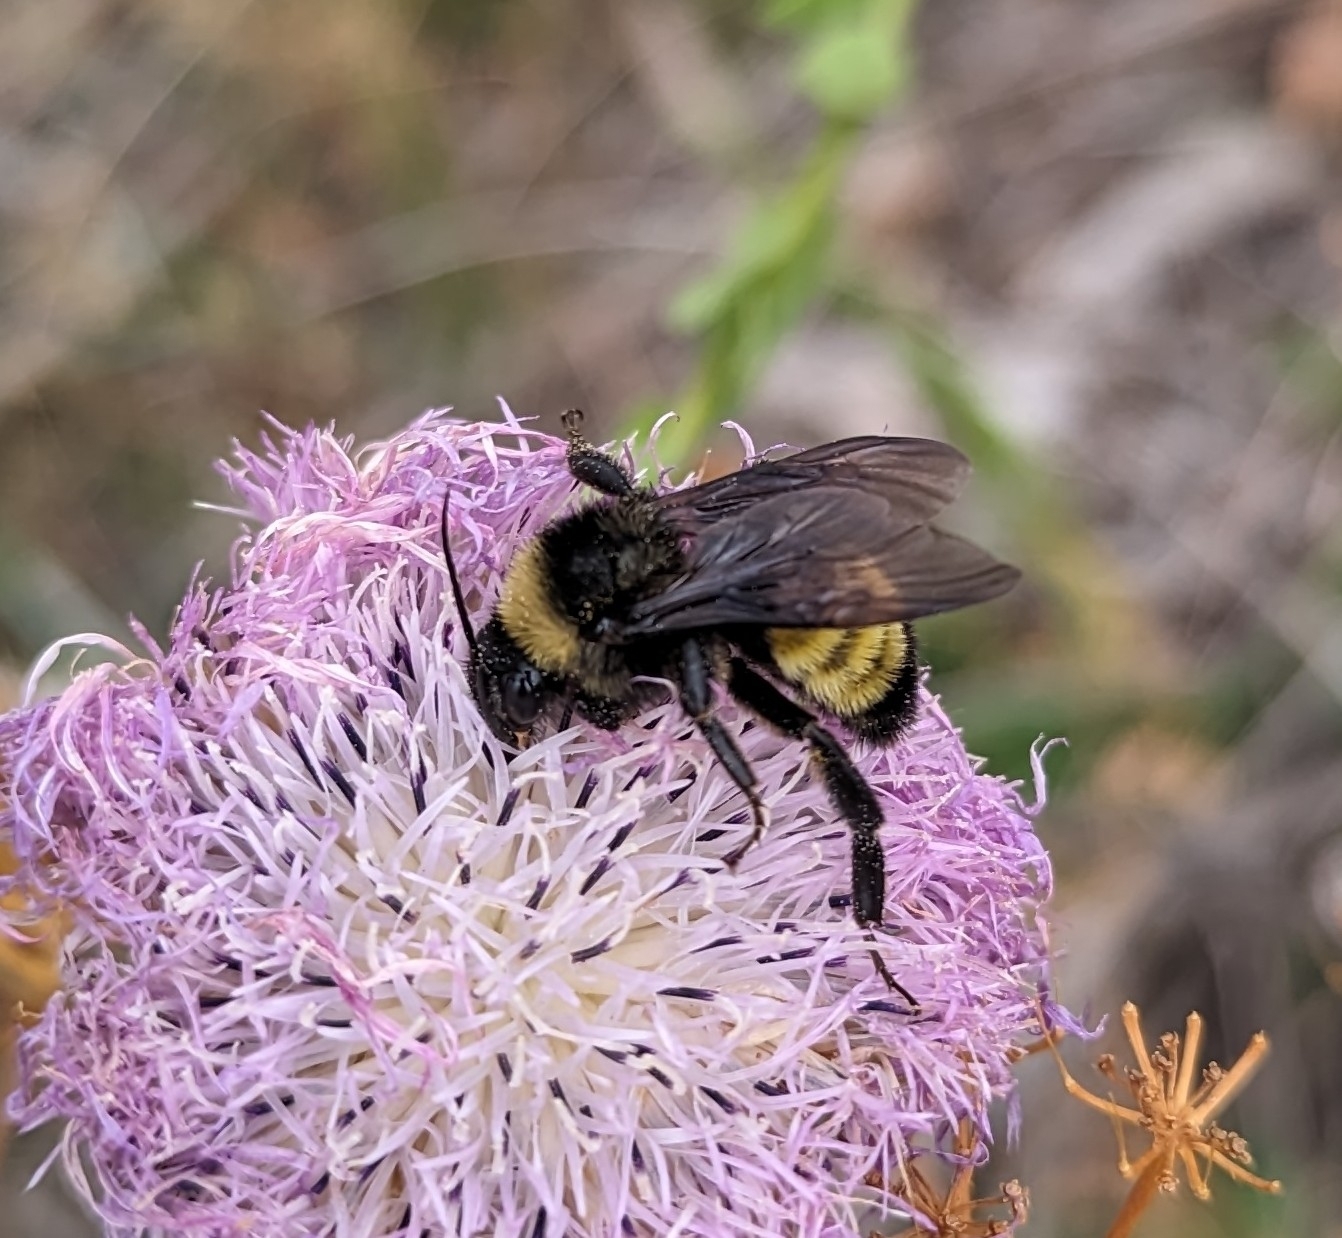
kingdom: Animalia
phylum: Arthropoda
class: Insecta
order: Hymenoptera
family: Apidae
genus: Bombus
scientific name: Bombus pensylvanicus
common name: Bumble bee
